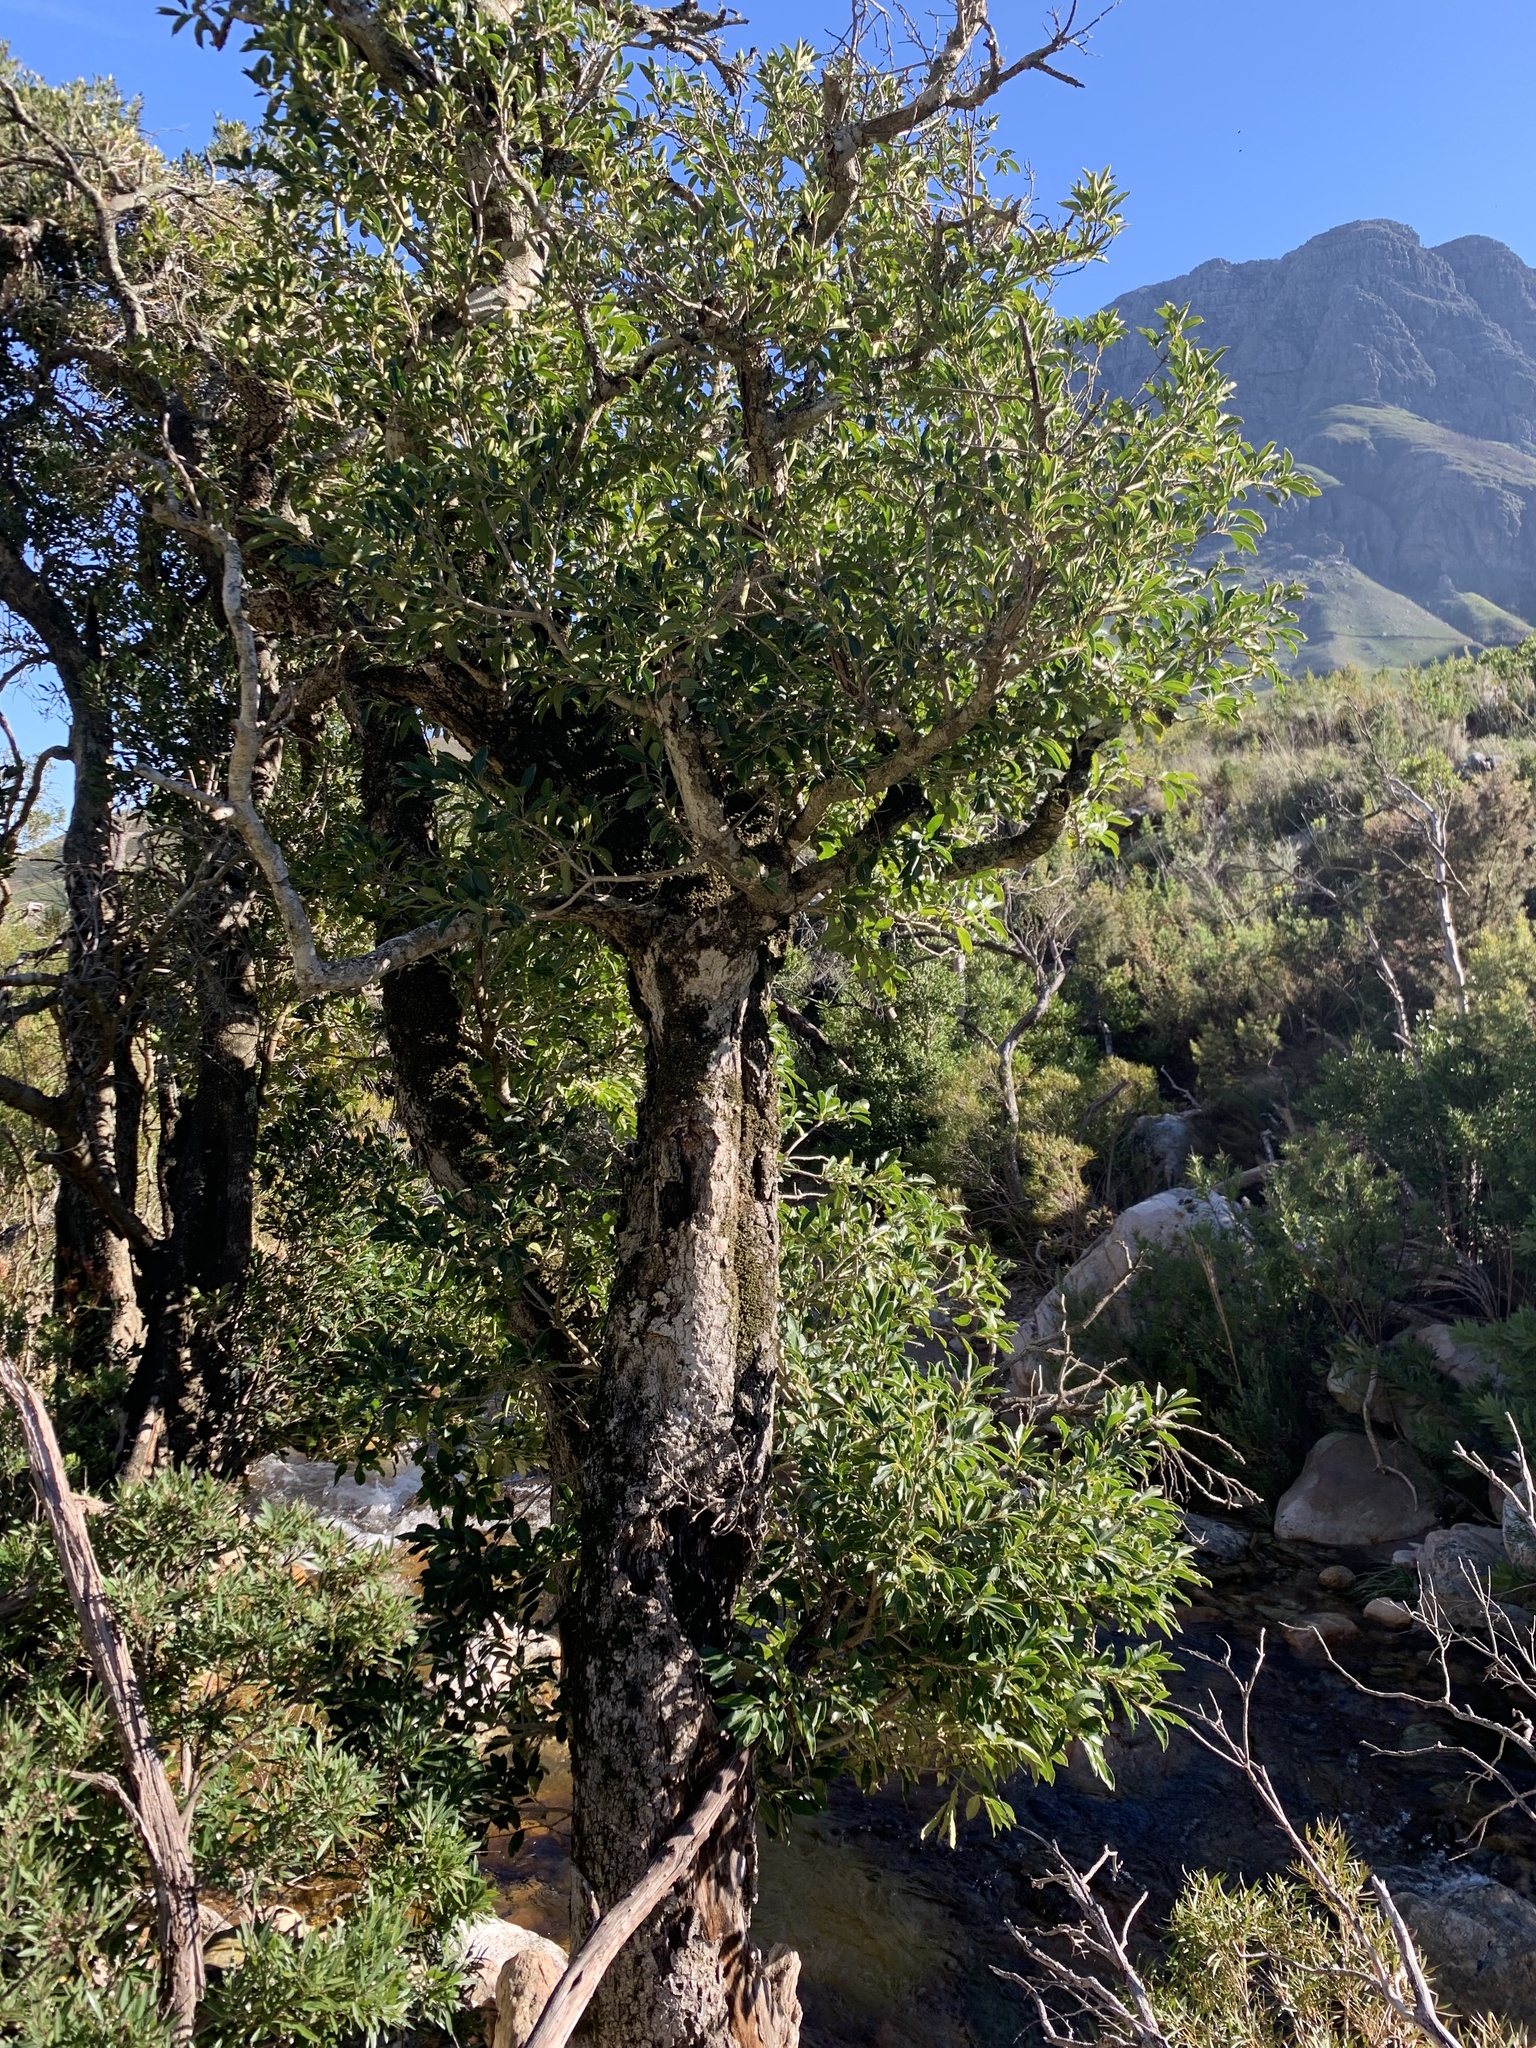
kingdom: Plantae
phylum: Tracheophyta
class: Magnoliopsida
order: Aquifoliales
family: Aquifoliaceae
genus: Ilex
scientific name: Ilex mitis
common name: African holly
